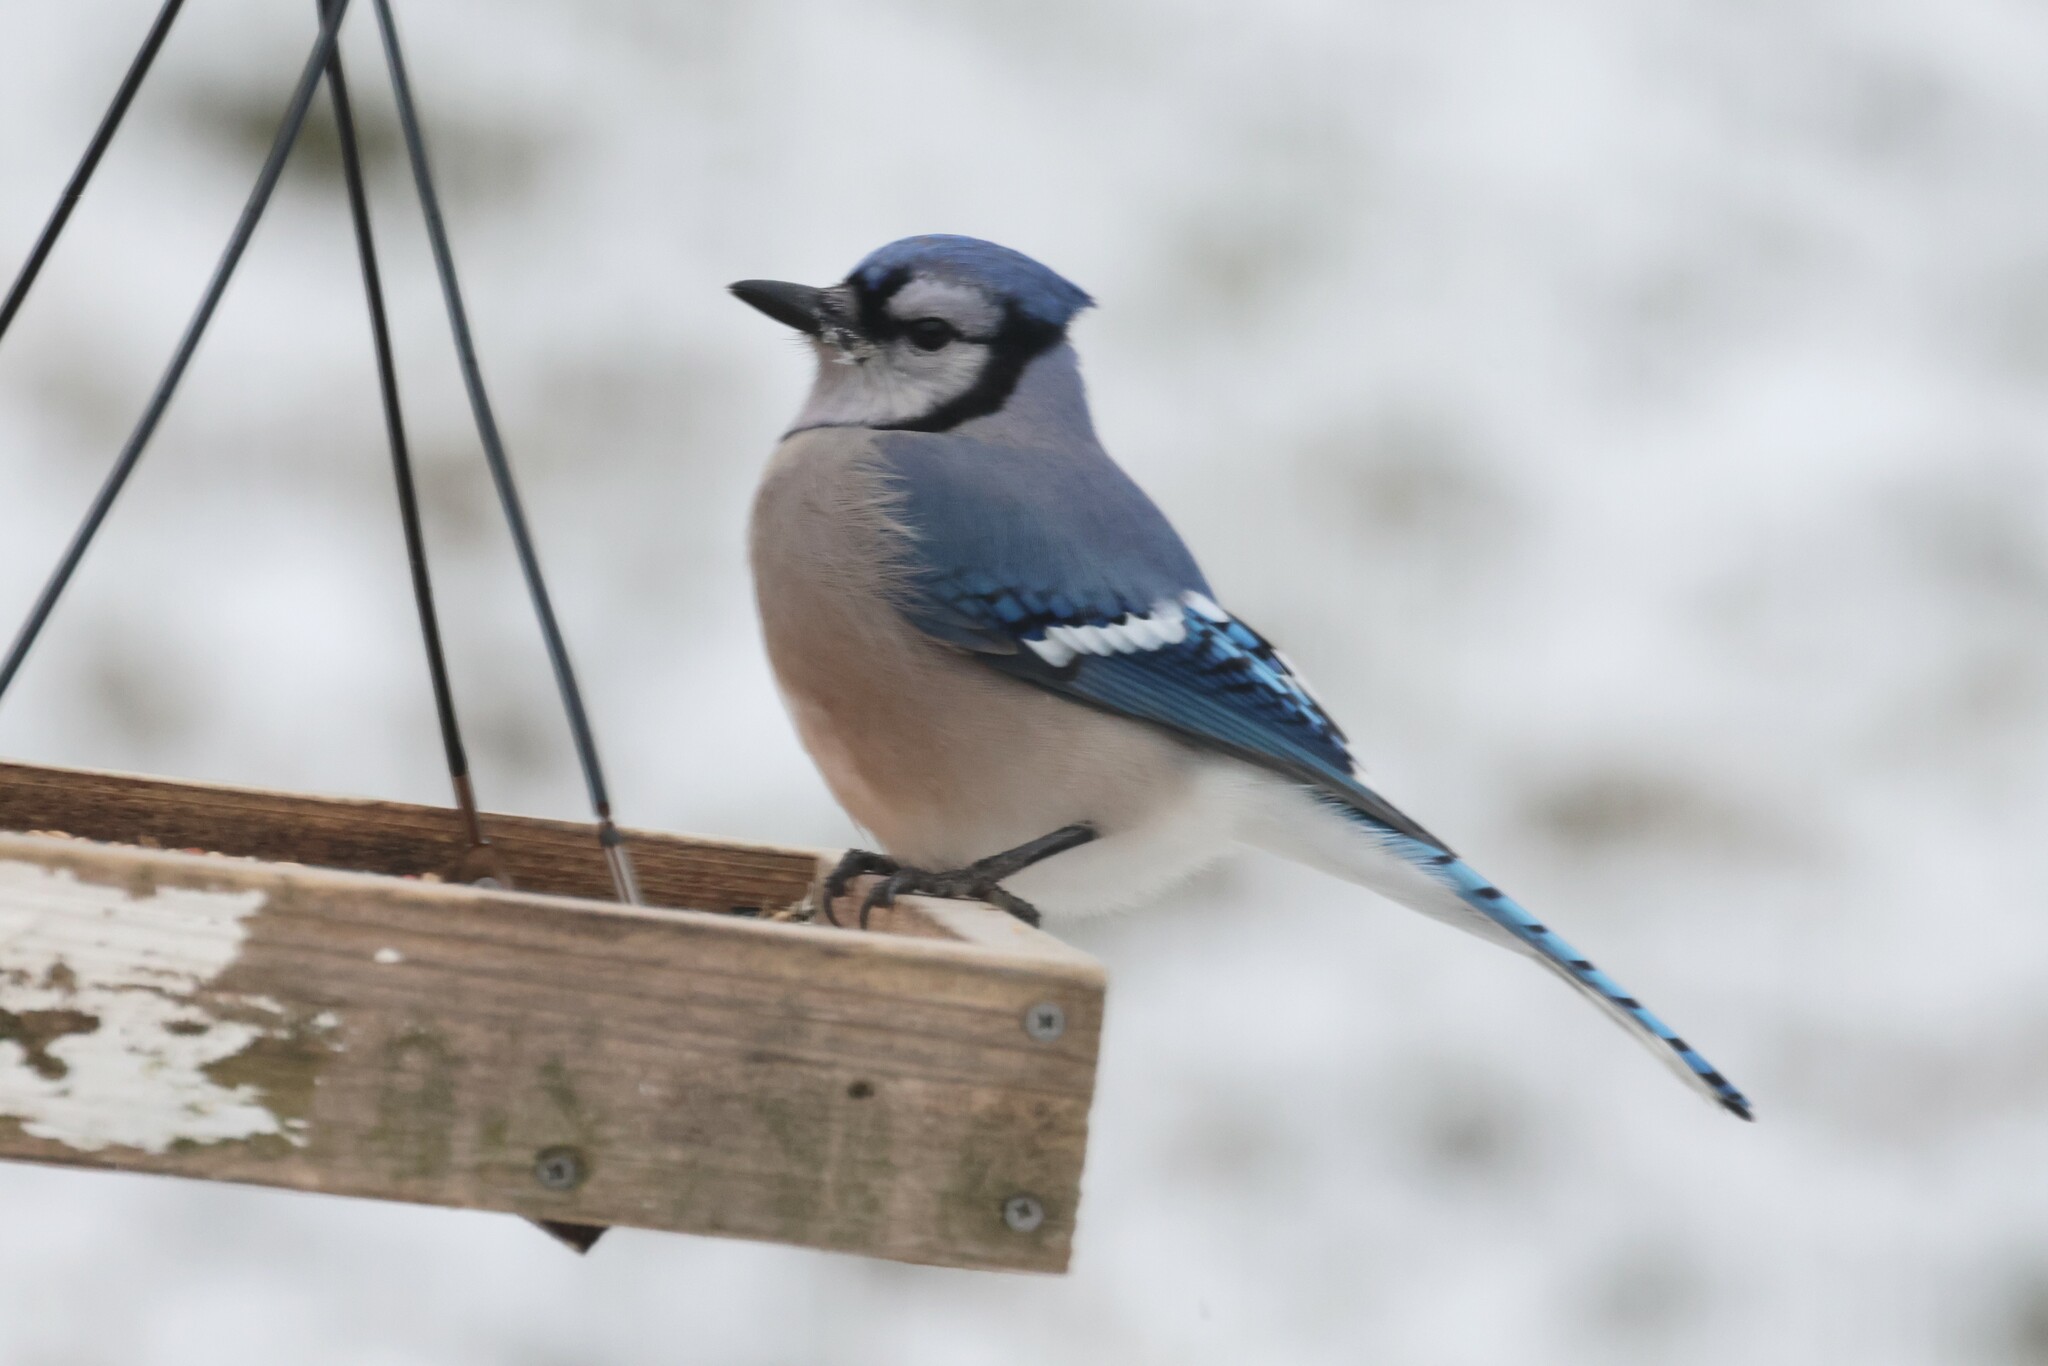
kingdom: Animalia
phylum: Chordata
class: Aves
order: Passeriformes
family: Corvidae
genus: Cyanocitta
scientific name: Cyanocitta cristata
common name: Blue jay
